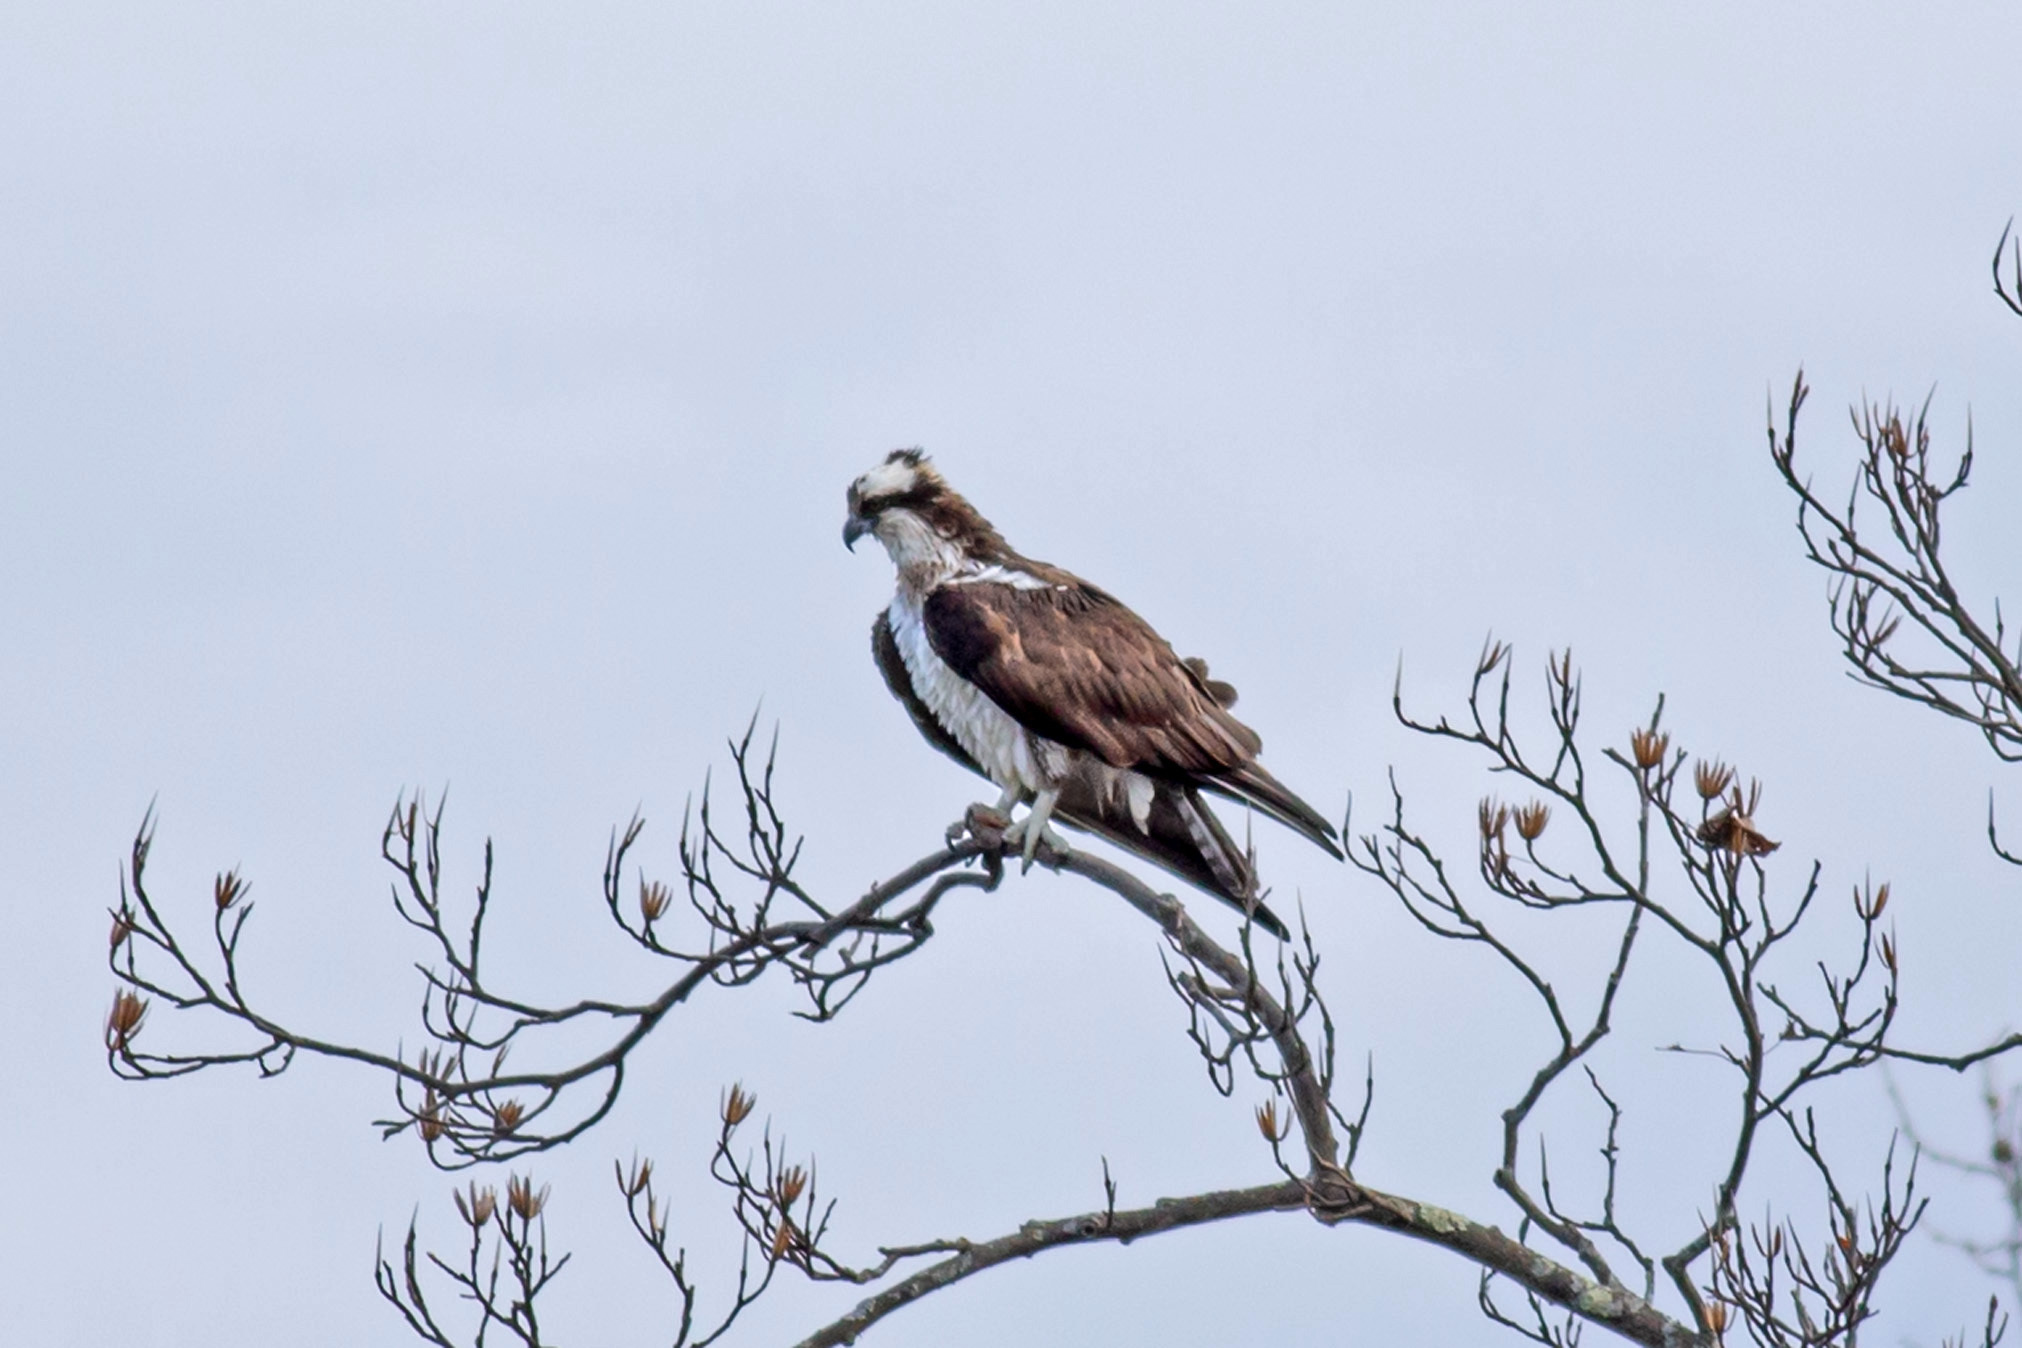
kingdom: Animalia
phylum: Chordata
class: Aves
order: Accipitriformes
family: Pandionidae
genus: Pandion
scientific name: Pandion haliaetus
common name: Osprey
